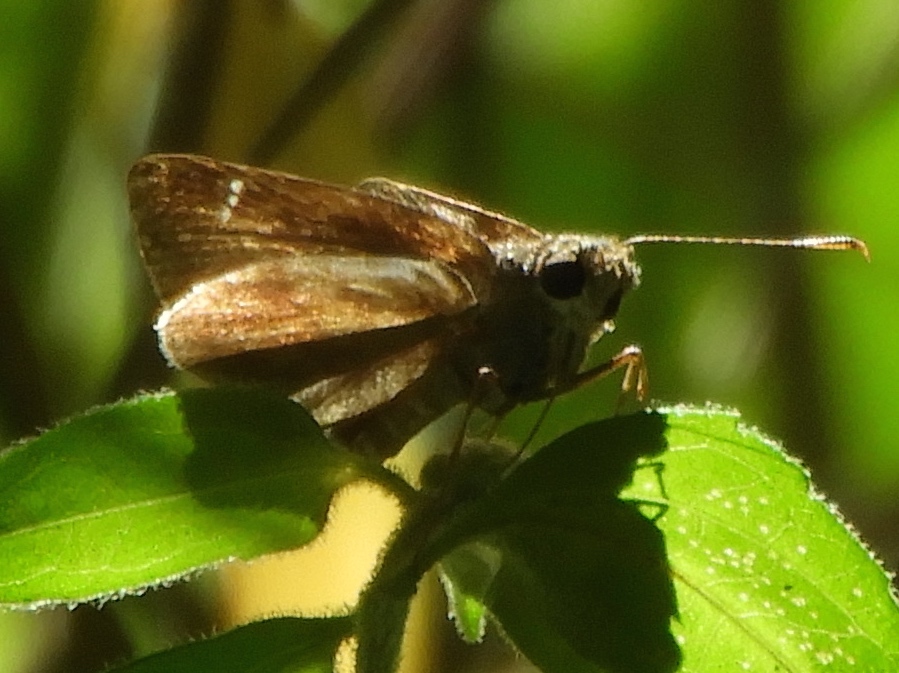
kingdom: Animalia
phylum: Arthropoda
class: Insecta
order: Lepidoptera
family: Hesperiidae
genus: Lerema
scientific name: Lerema
